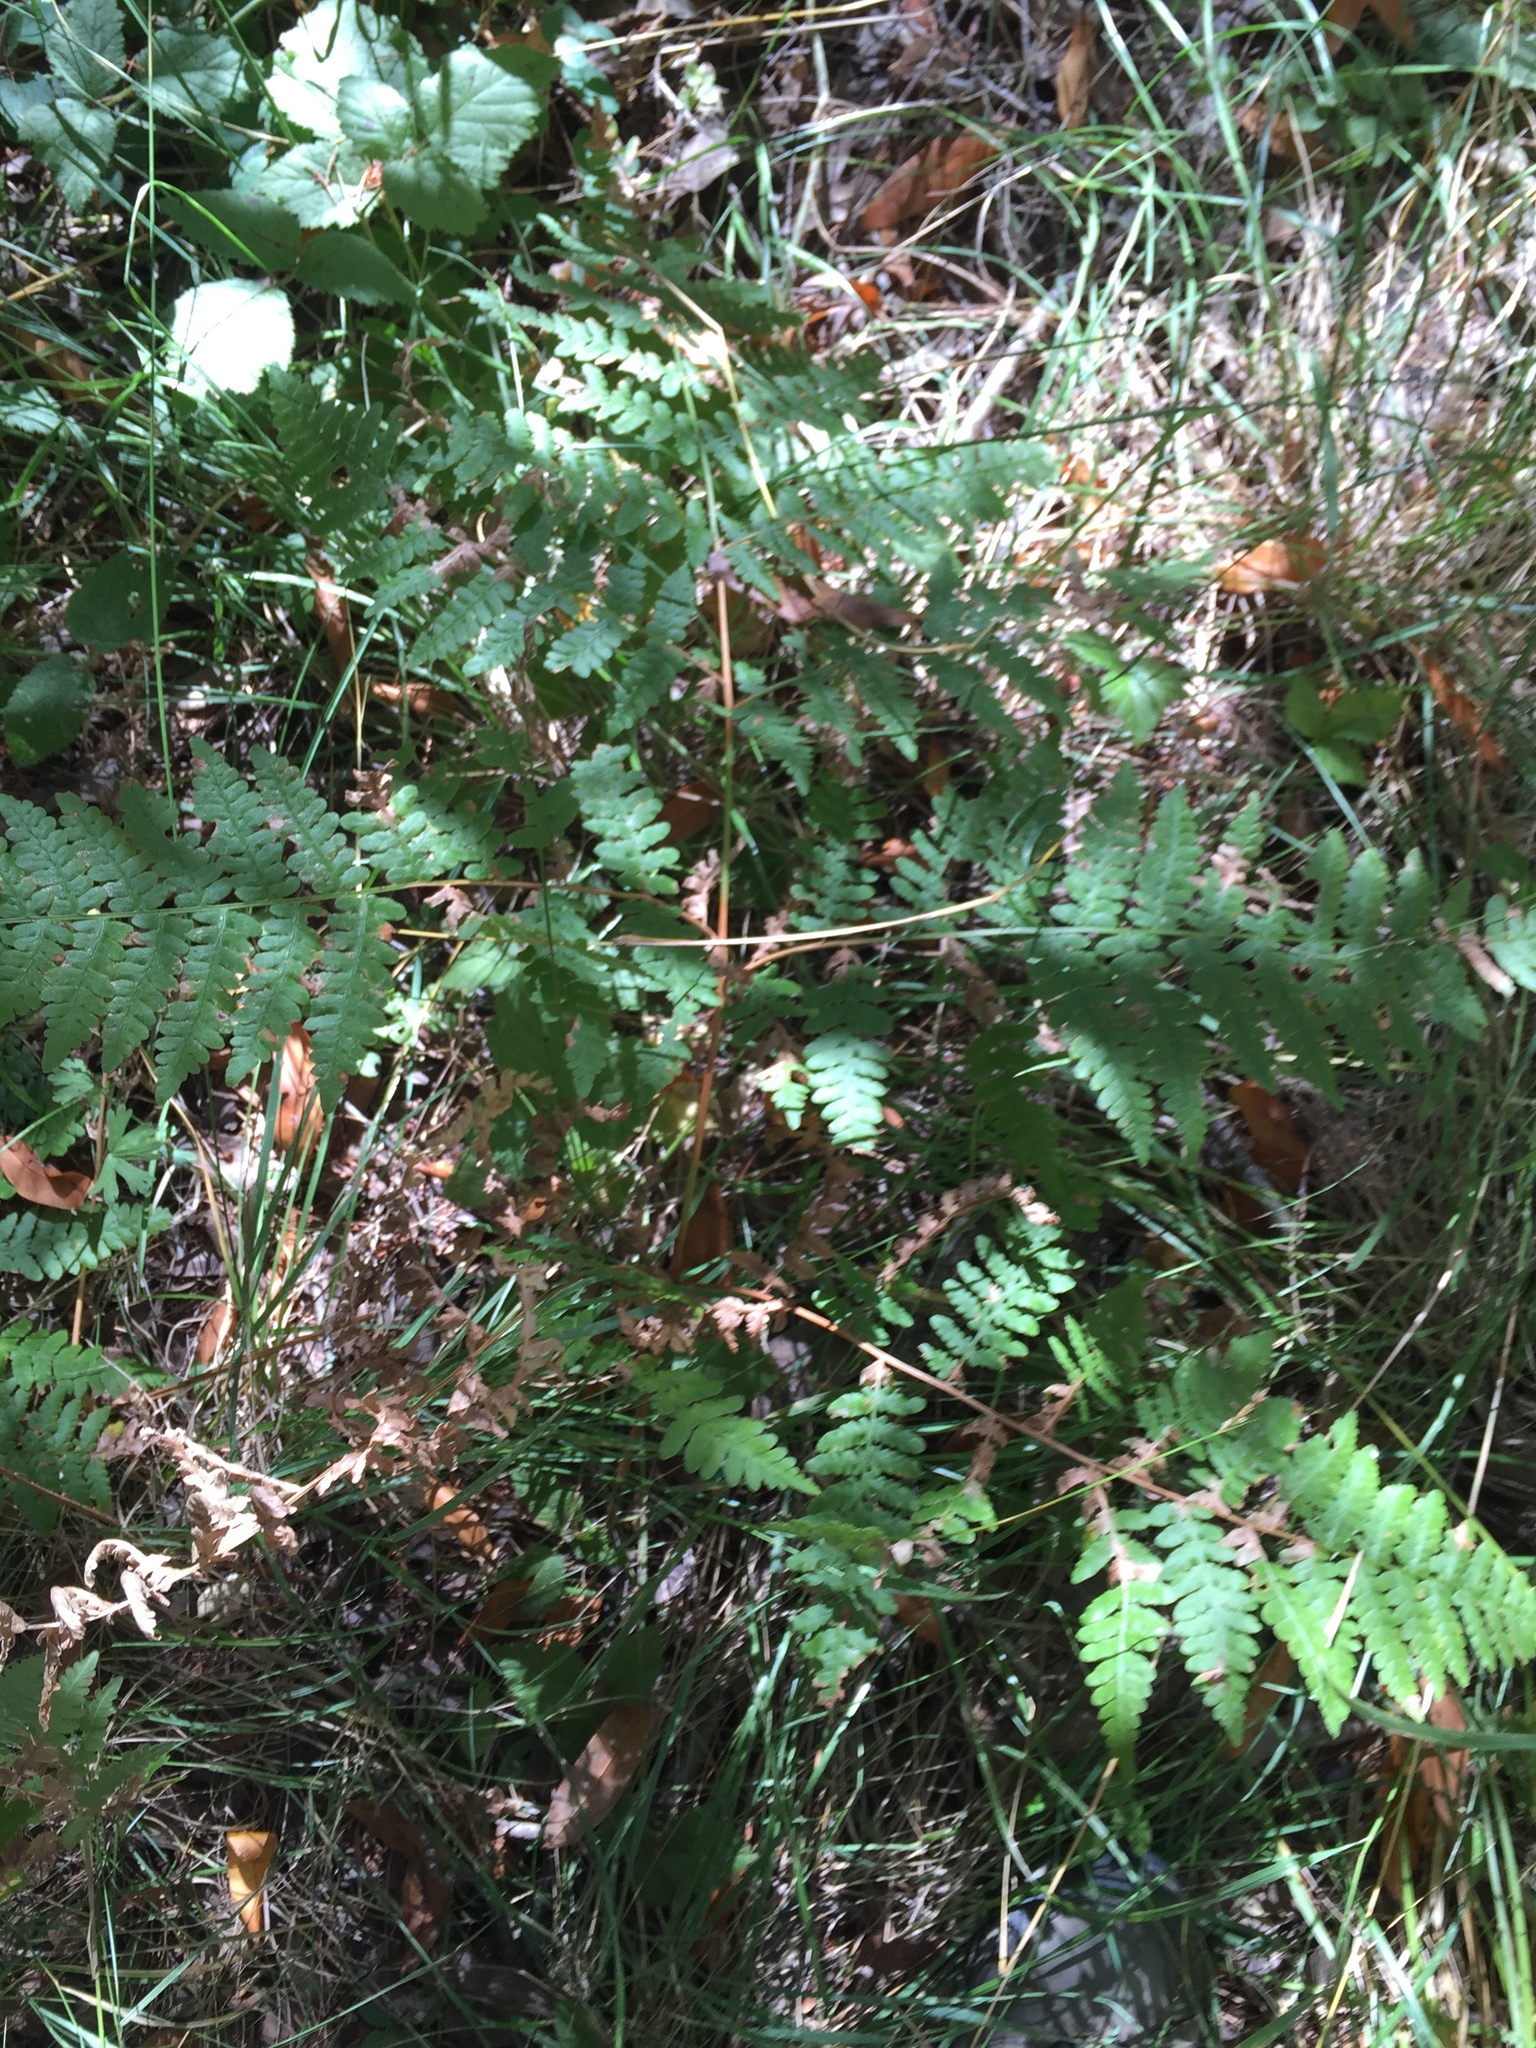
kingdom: Plantae
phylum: Tracheophyta
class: Polypodiopsida
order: Polypodiales
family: Dennstaedtiaceae
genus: Pteridium
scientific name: Pteridium aquilinum
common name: Bracken
